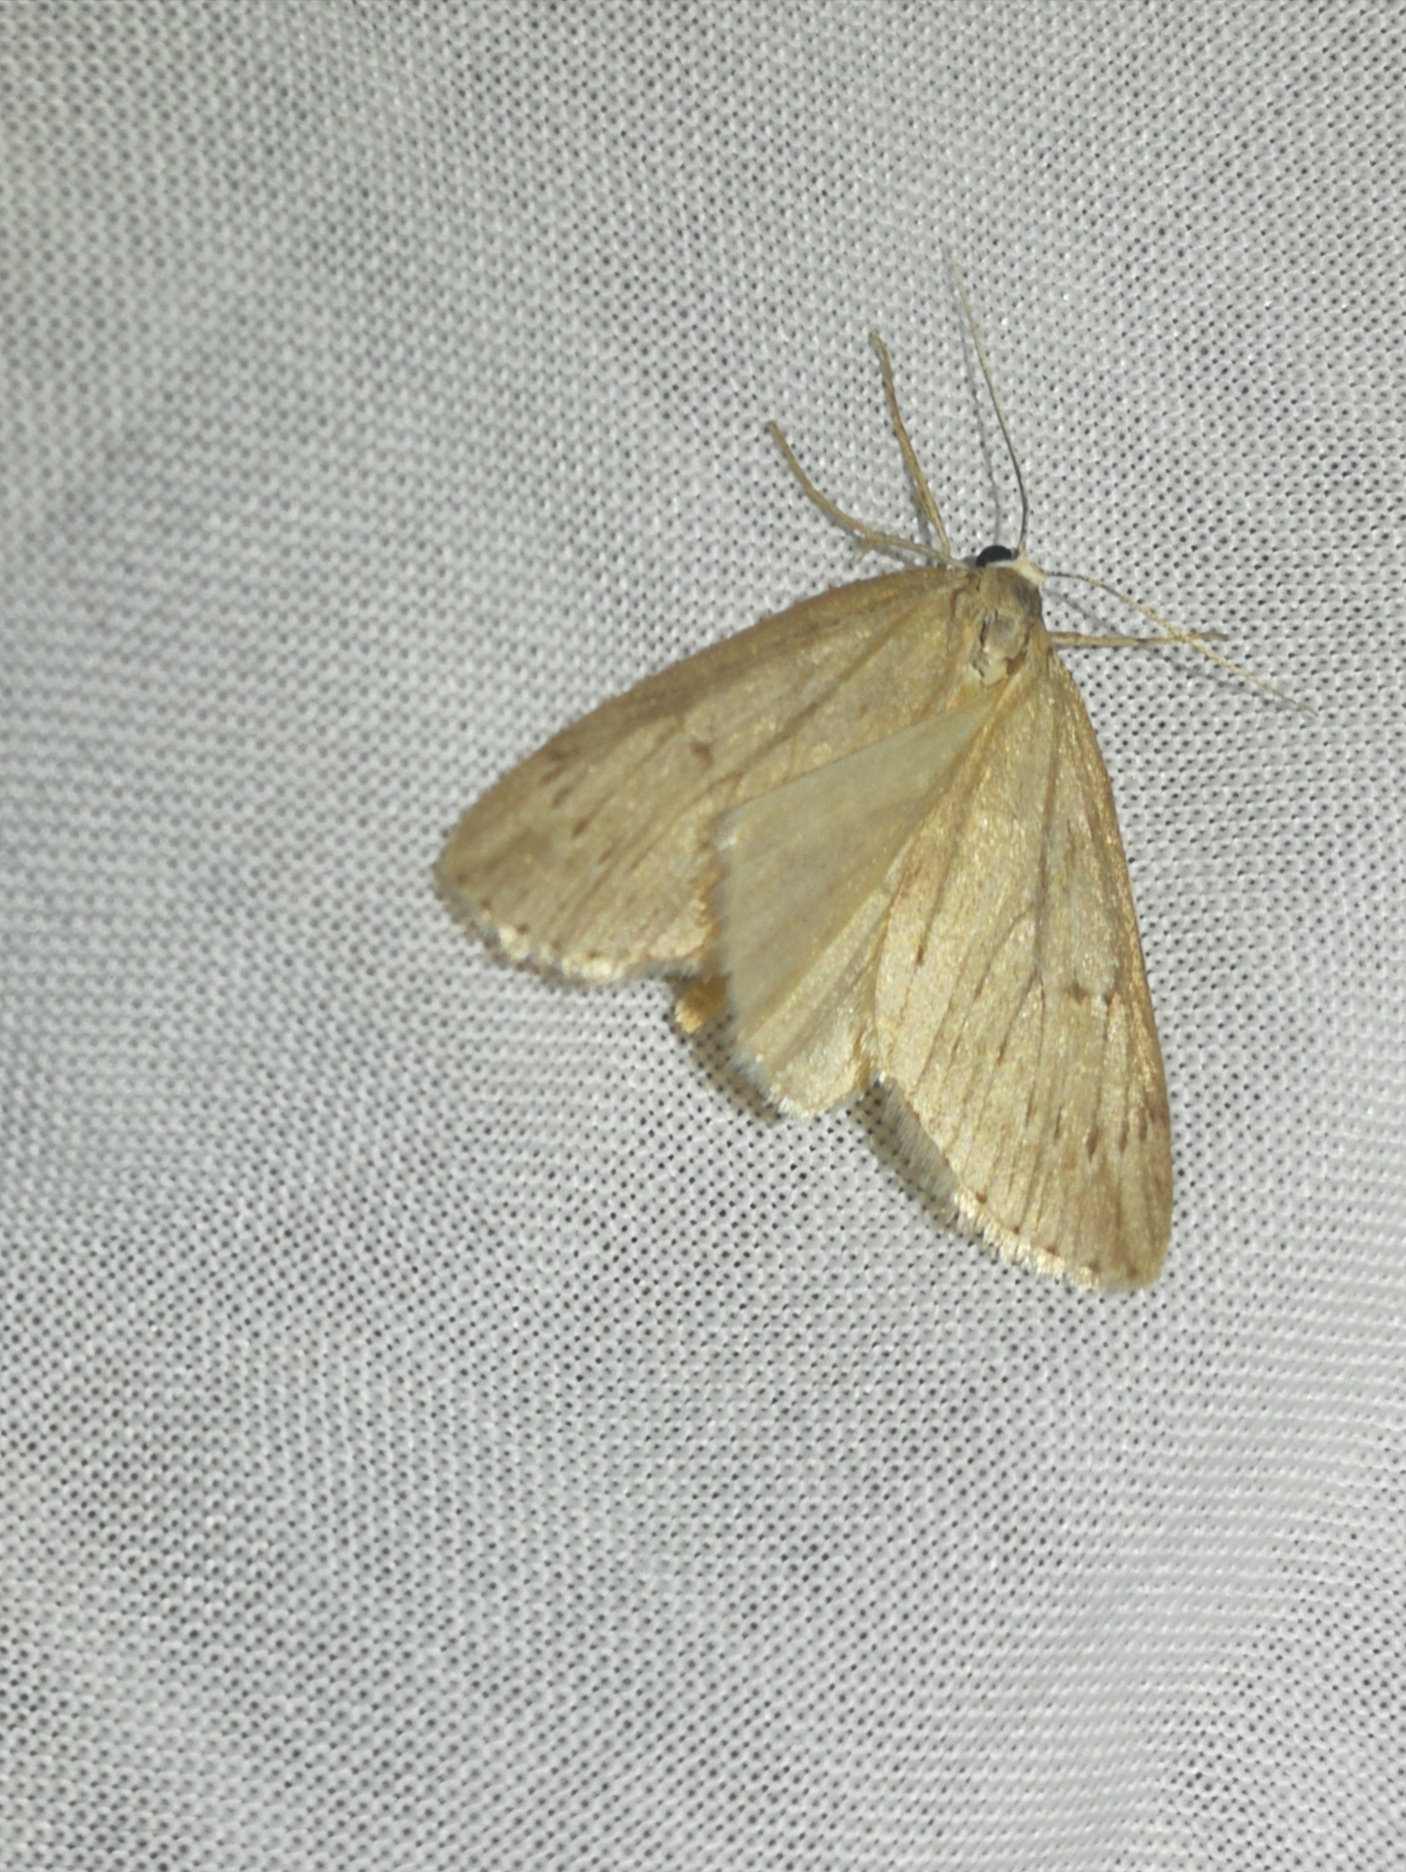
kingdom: Animalia
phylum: Arthropoda
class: Insecta
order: Lepidoptera
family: Geometridae
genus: Pachycnemia
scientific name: Pachycnemia hippocastanaria
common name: Horse chestnut
